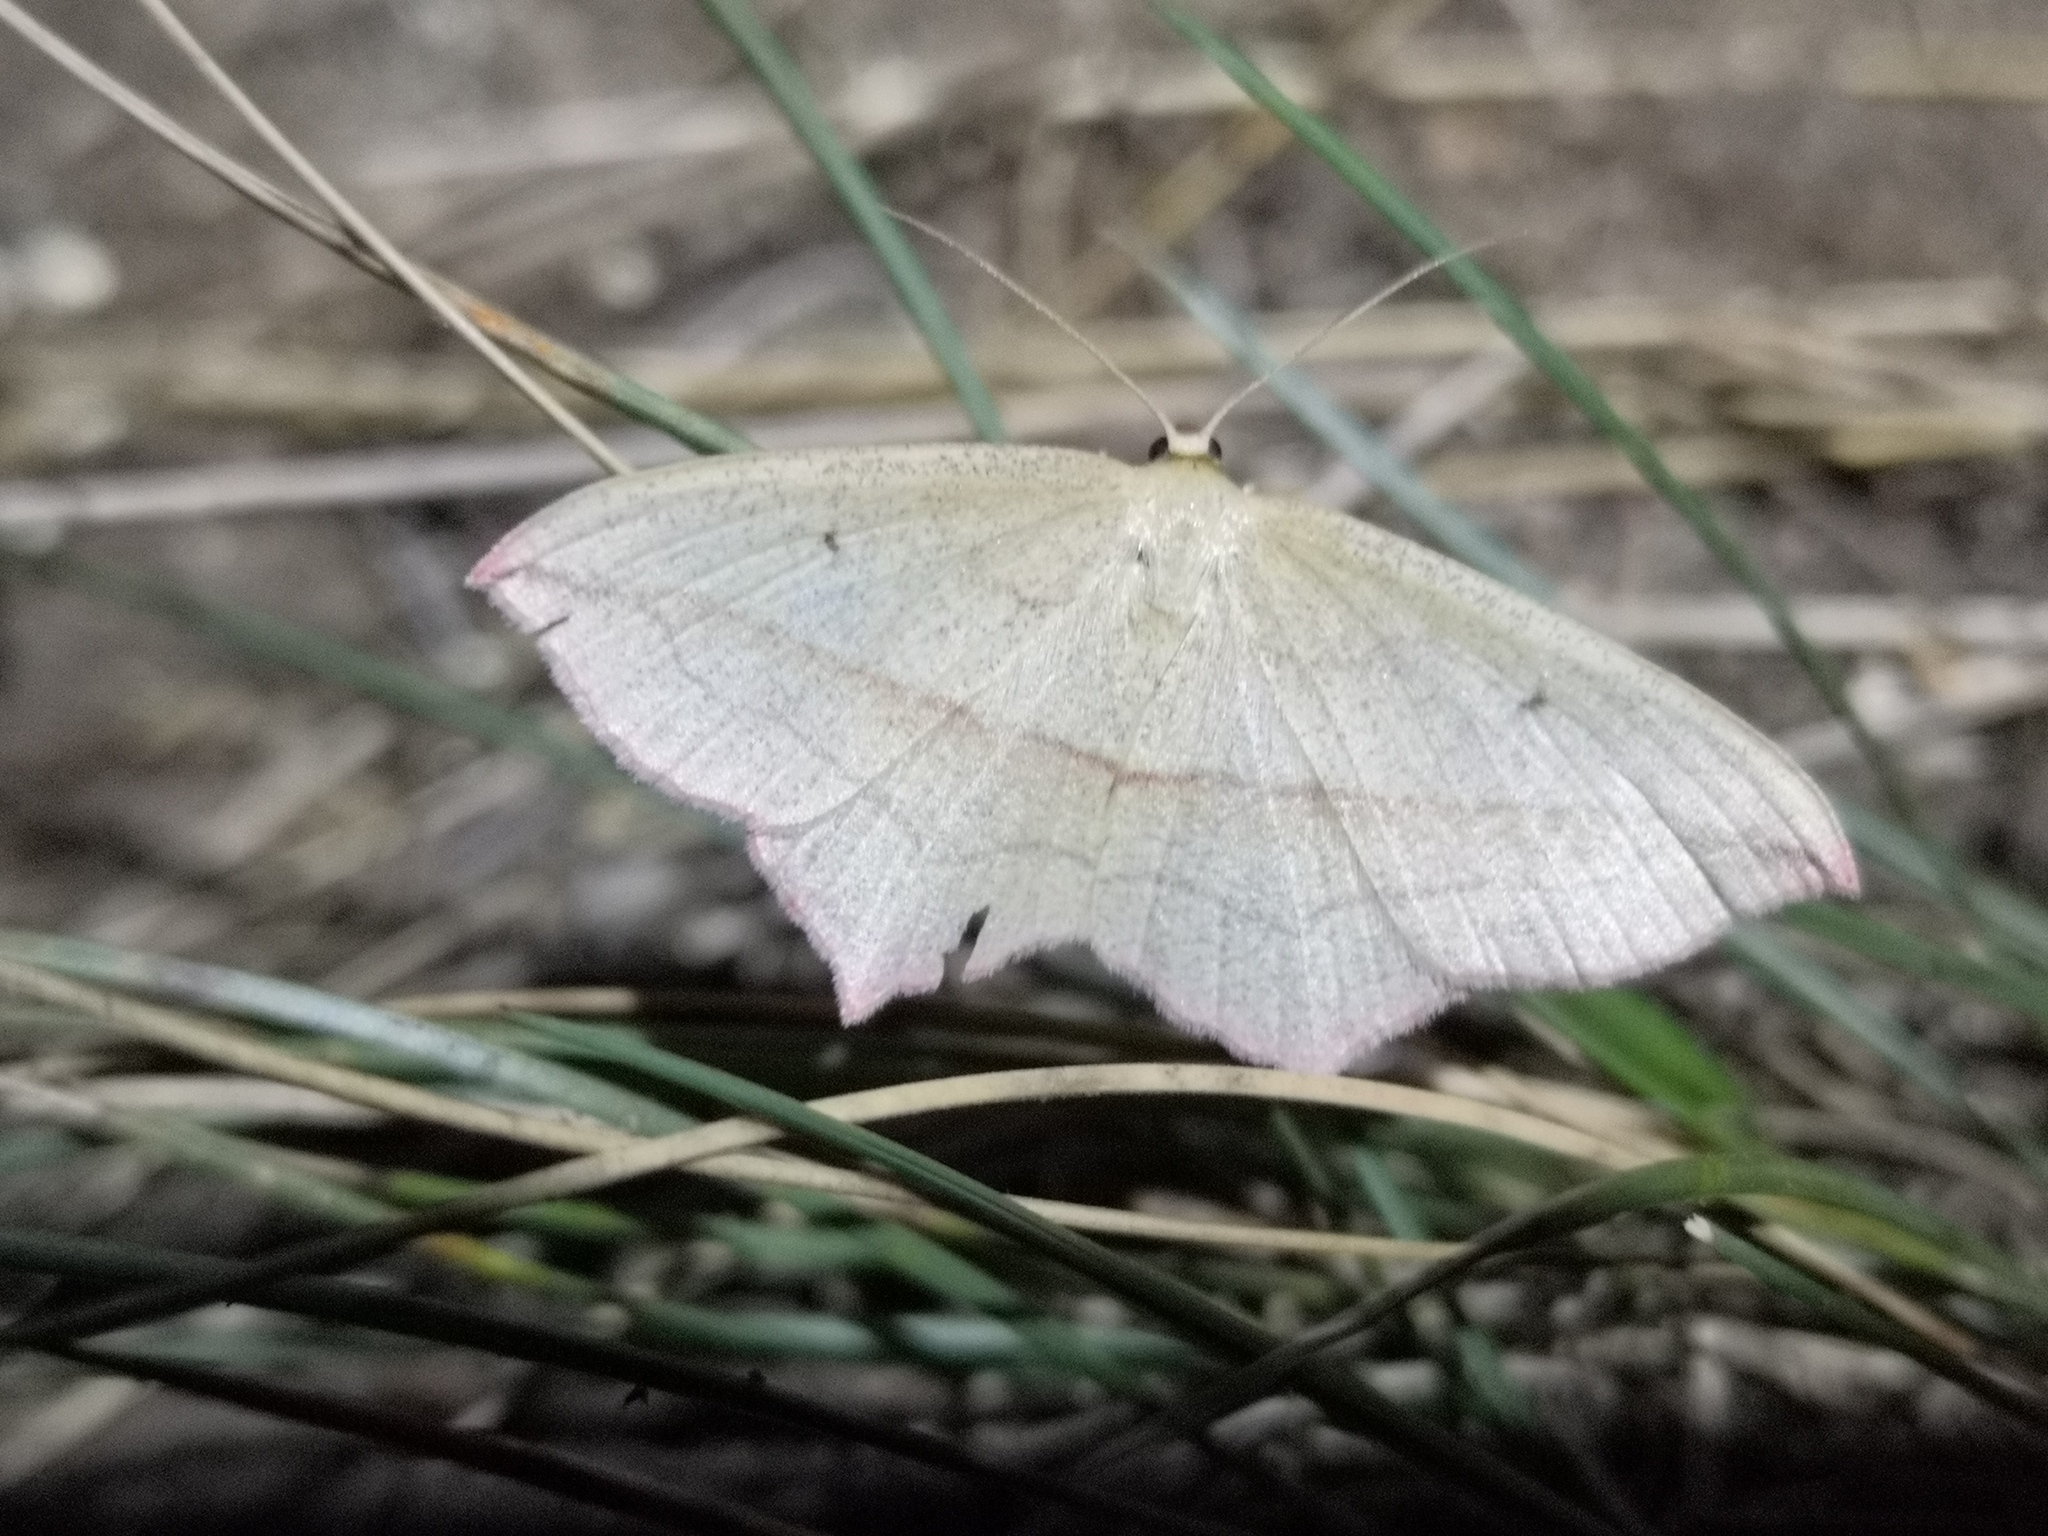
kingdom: Animalia
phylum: Arthropoda
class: Insecta
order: Lepidoptera
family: Geometridae
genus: Timandra
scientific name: Timandra comae
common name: Blood-vein
